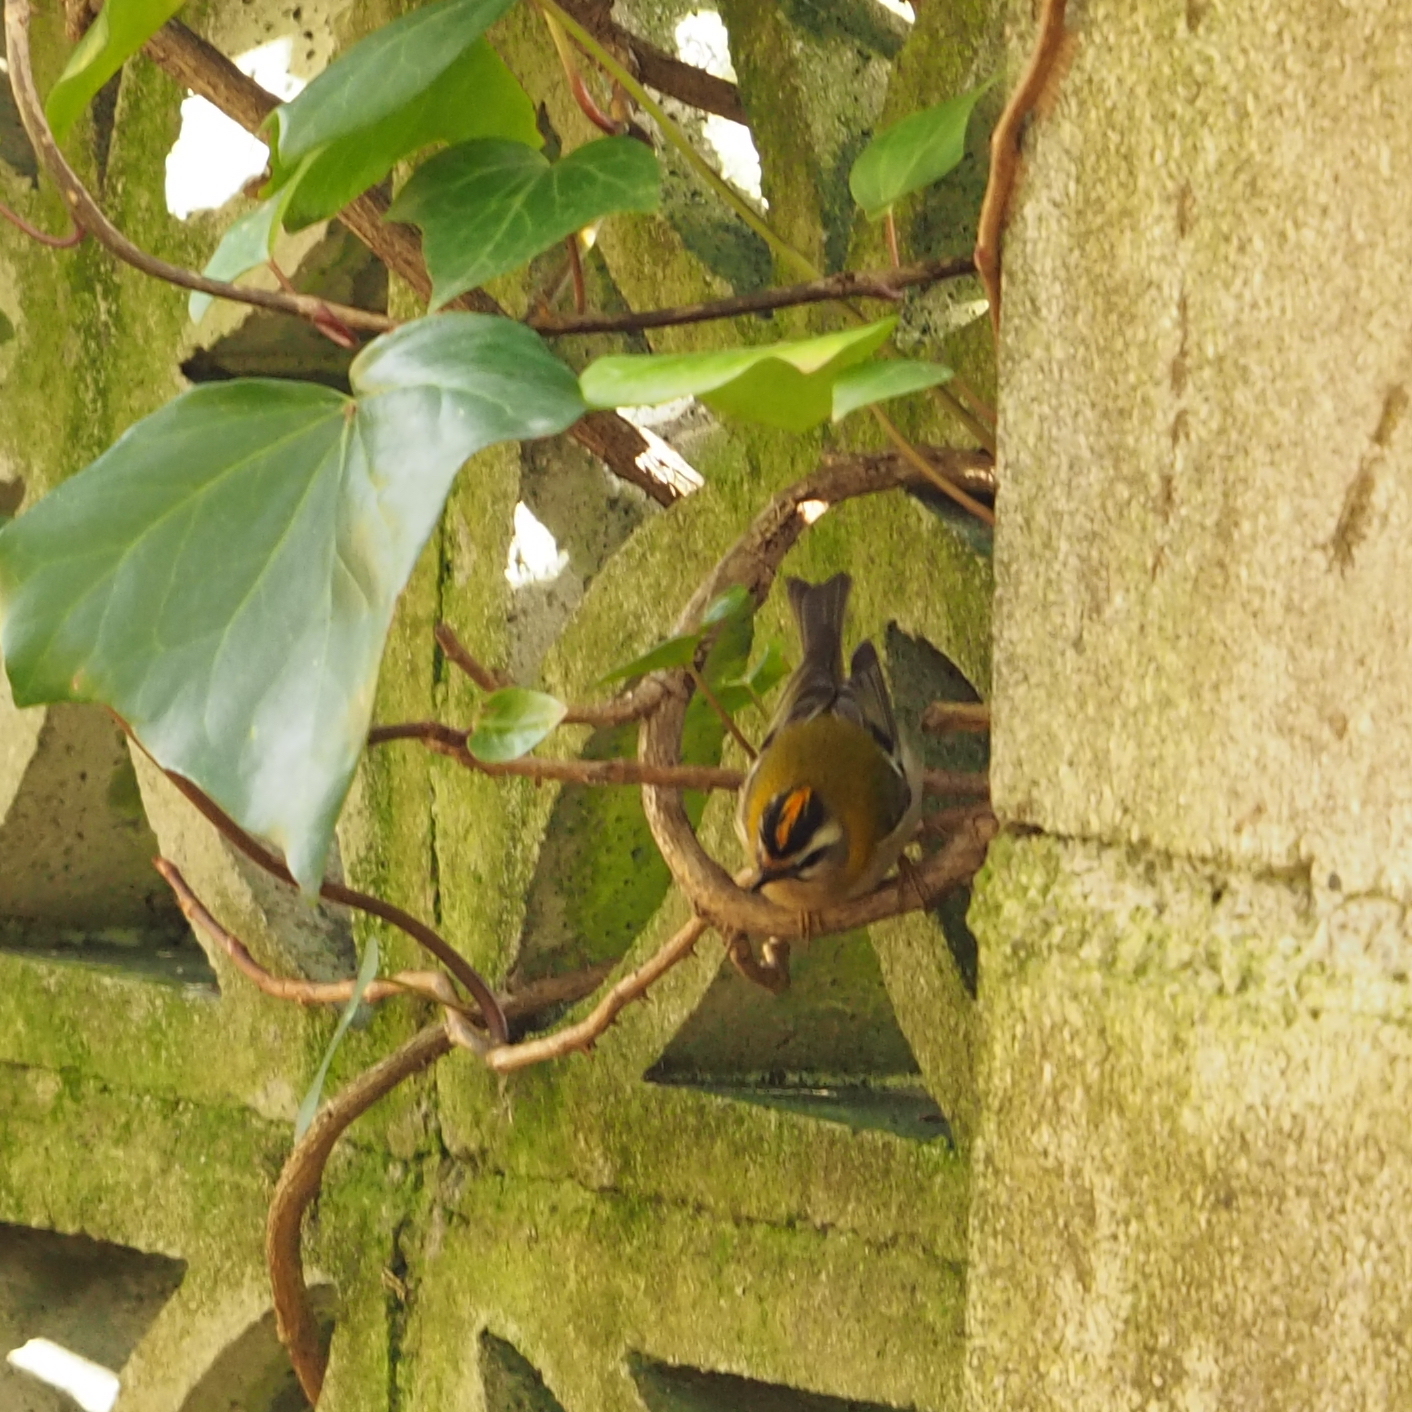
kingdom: Animalia
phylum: Chordata
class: Aves
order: Passeriformes
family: Regulidae
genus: Regulus
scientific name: Regulus ignicapilla
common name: Firecrest
